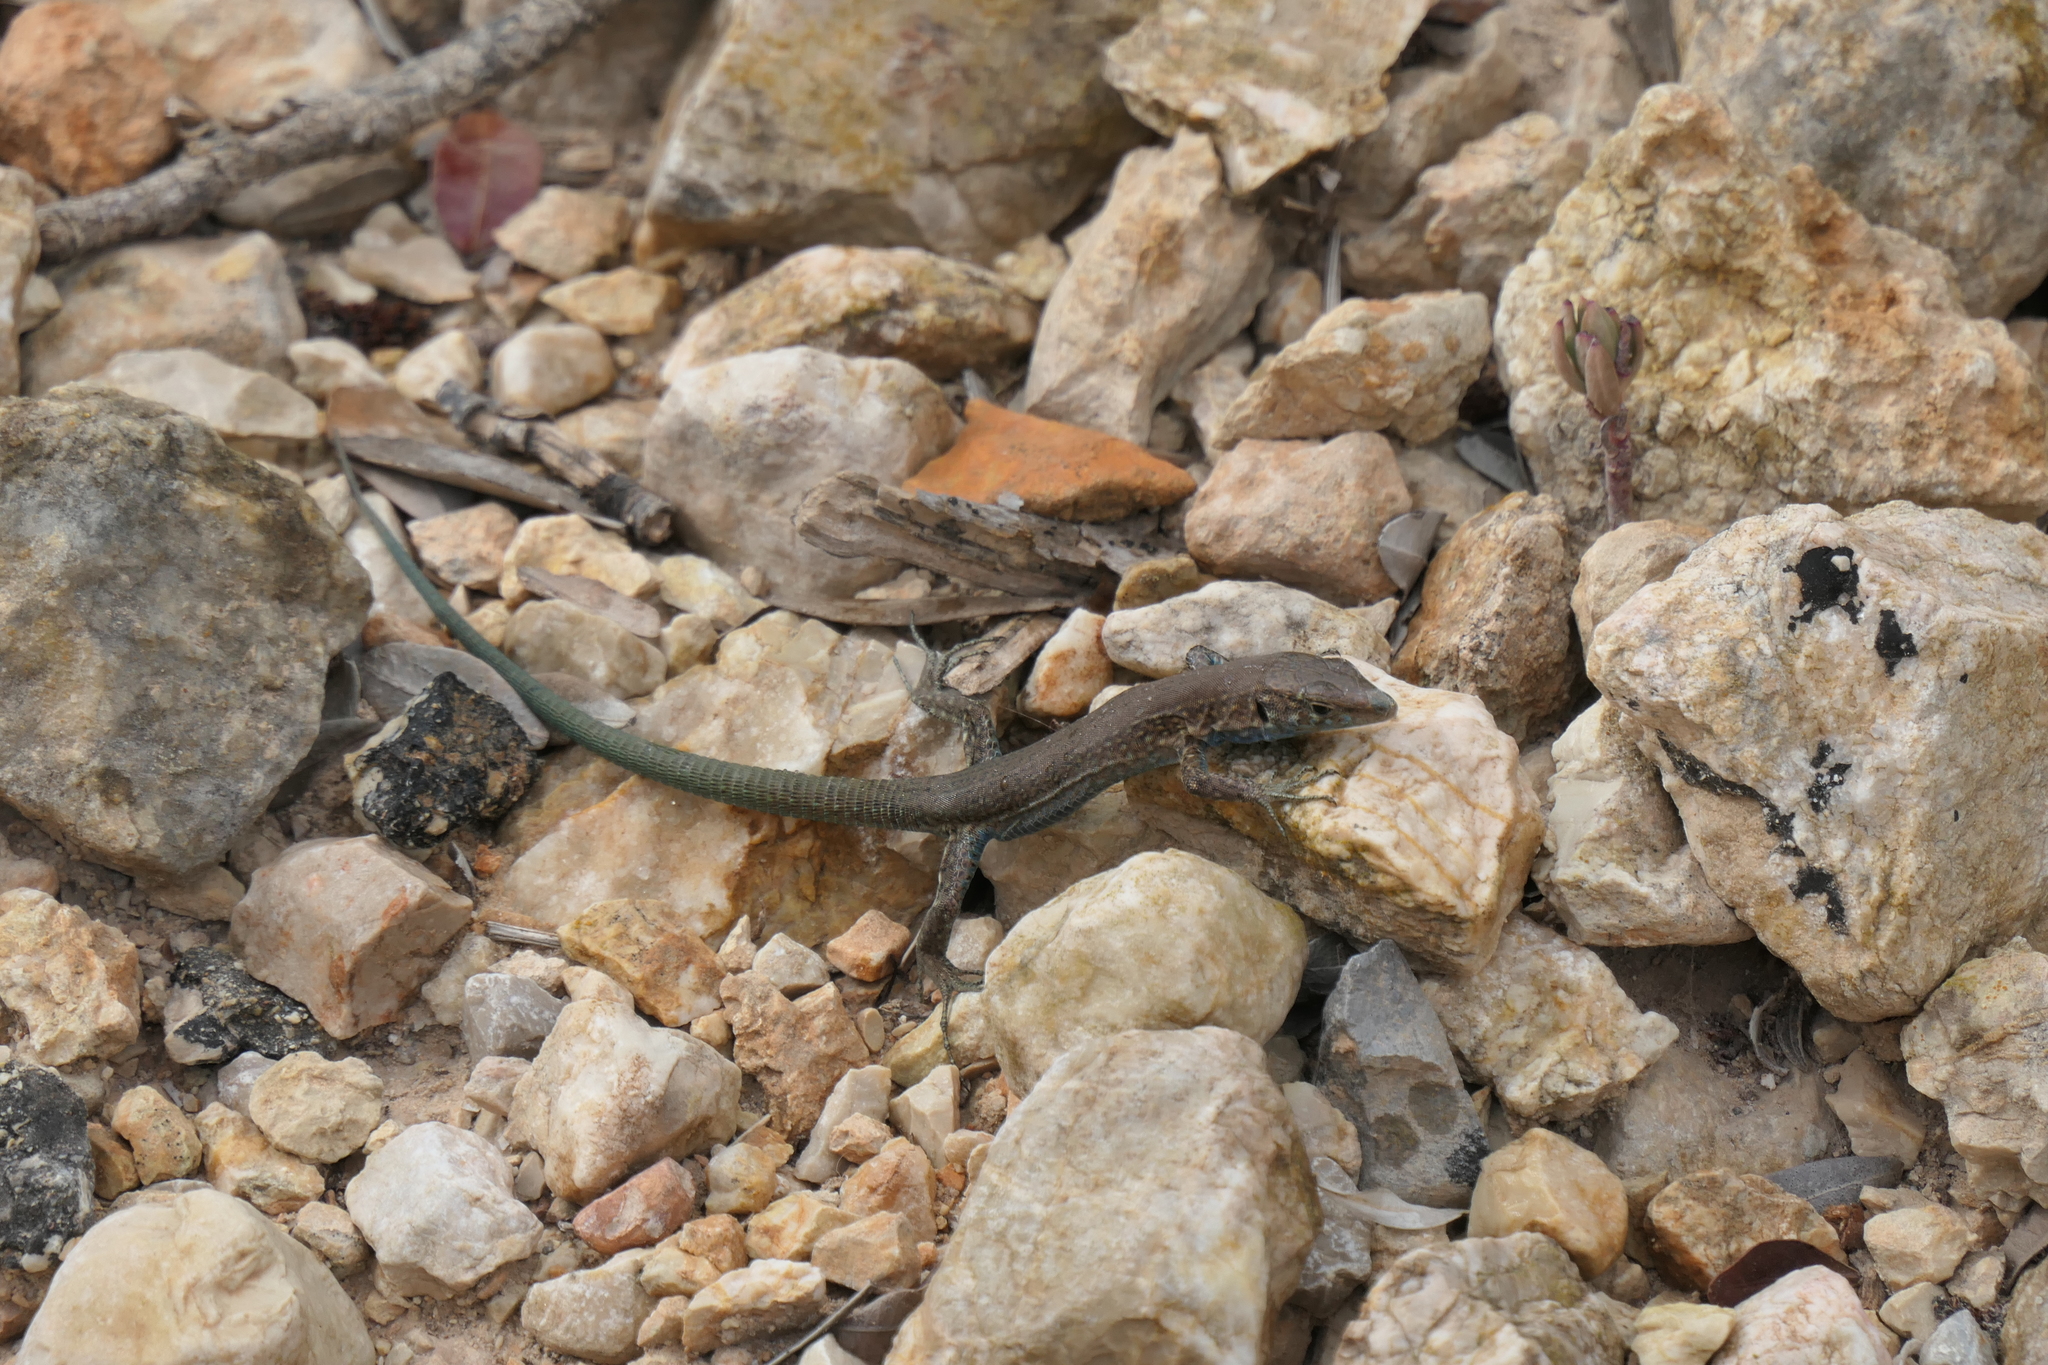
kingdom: Animalia
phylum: Chordata
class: Squamata
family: Lacertidae
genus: Podarcis
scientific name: Podarcis lilfordi
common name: Belearic lizard
